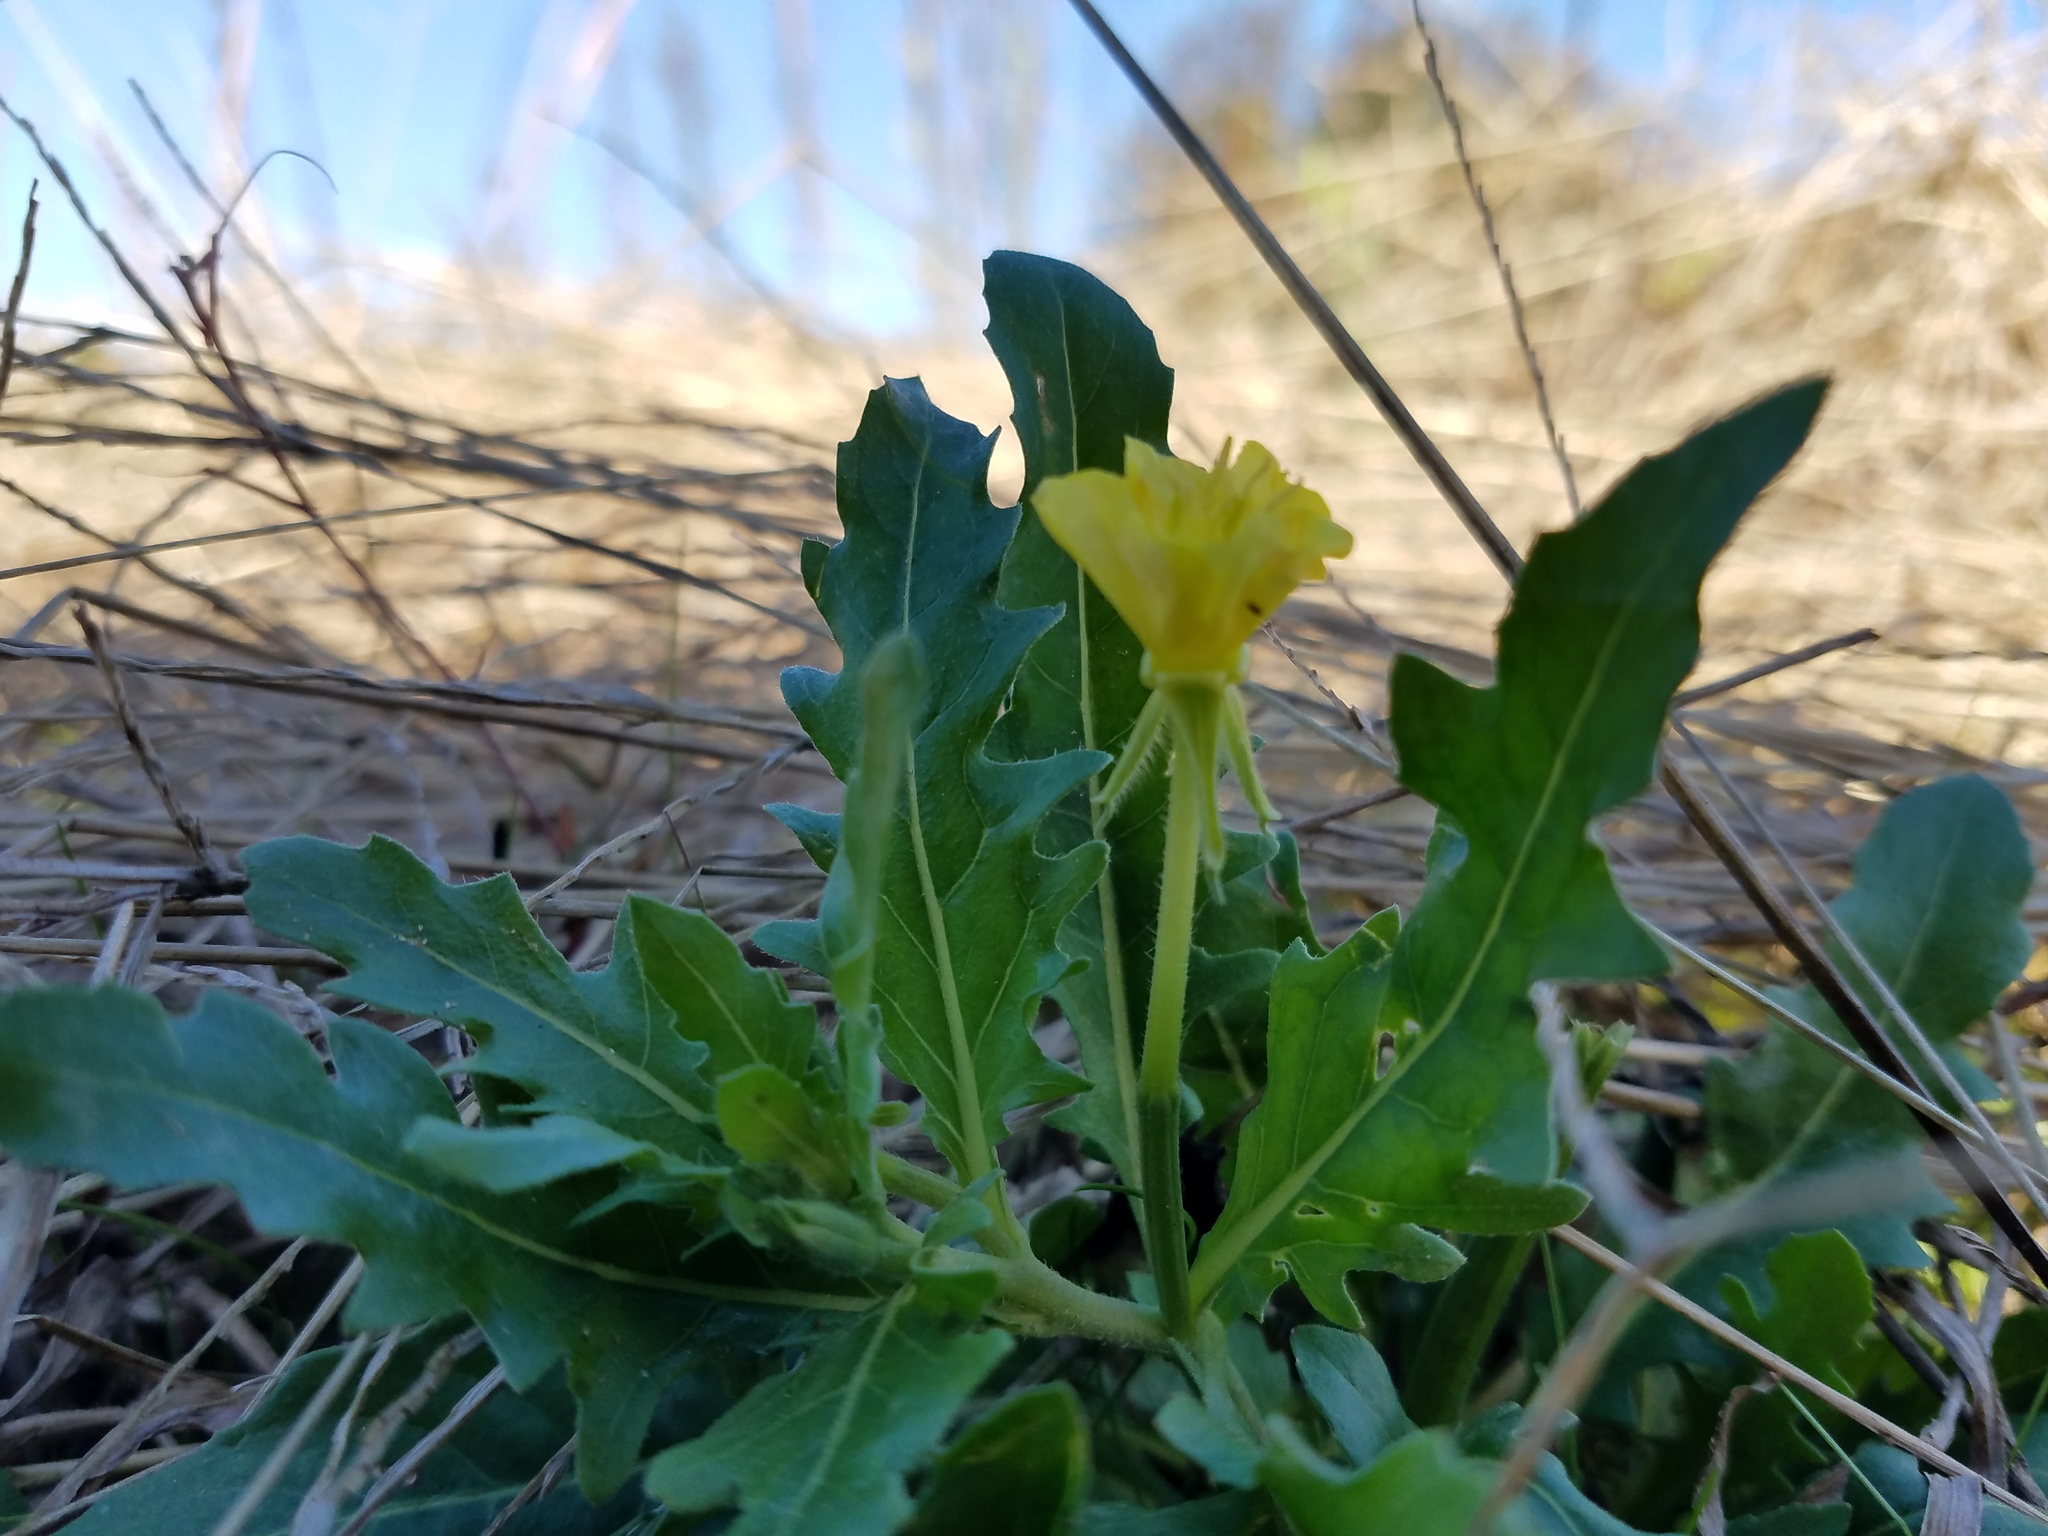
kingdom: Plantae
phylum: Tracheophyta
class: Magnoliopsida
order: Myrtales
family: Onagraceae
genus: Oenothera
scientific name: Oenothera laciniata
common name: Cut-leaved evening-primrose
